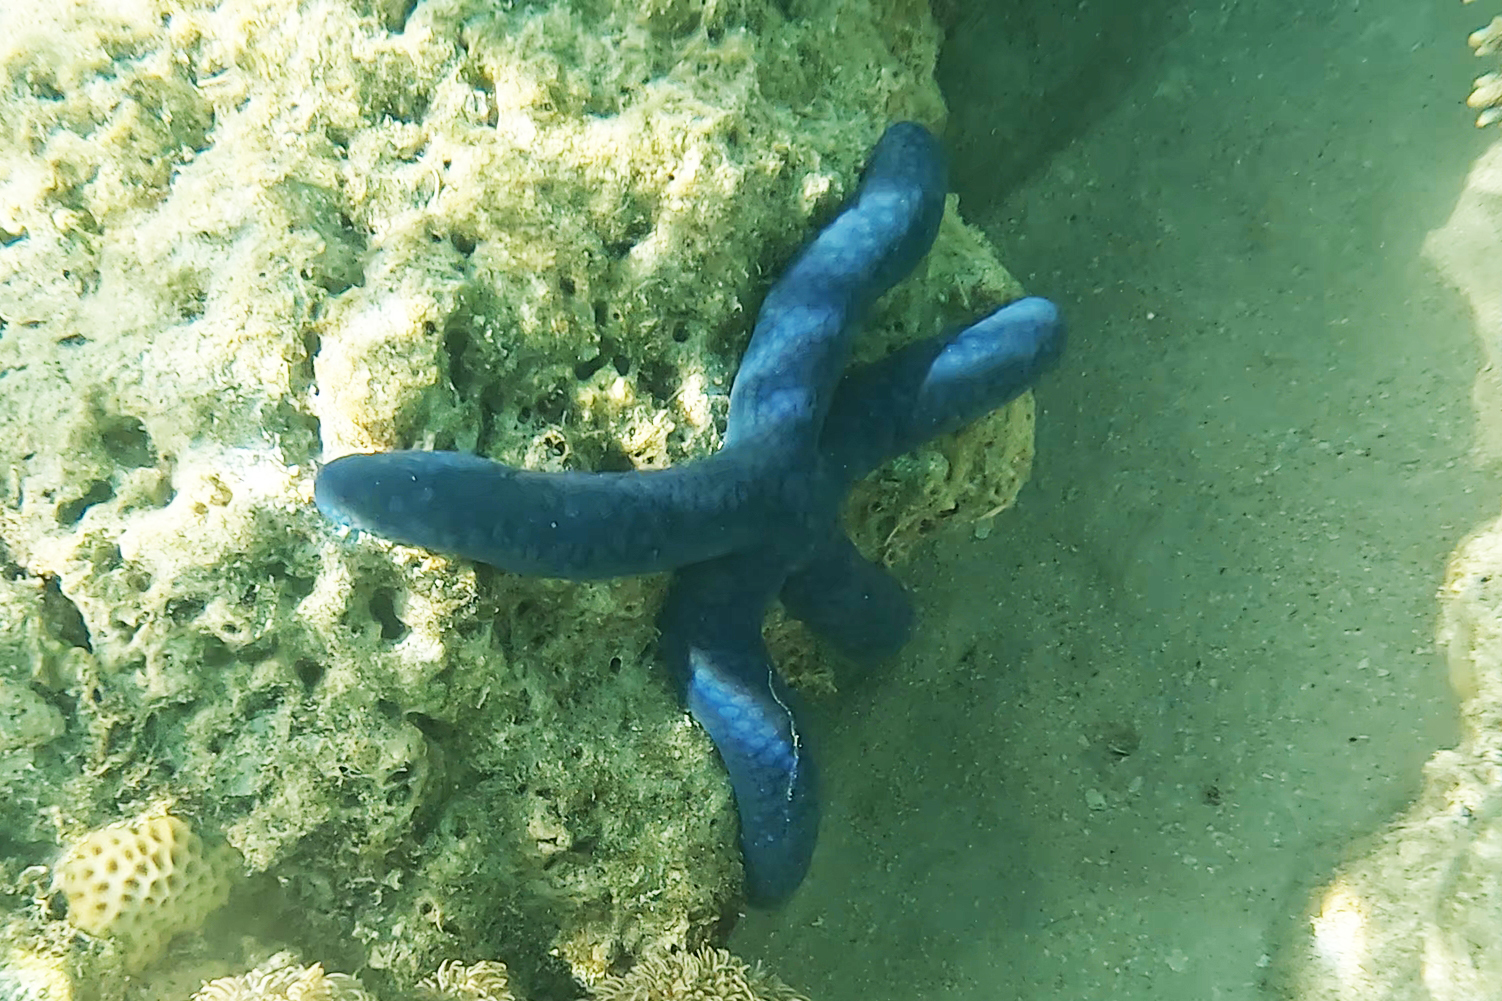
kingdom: Animalia
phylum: Echinodermata
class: Asteroidea
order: Valvatida
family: Ophidiasteridae
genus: Linckia
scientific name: Linckia laevigata
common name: Azure sea star
